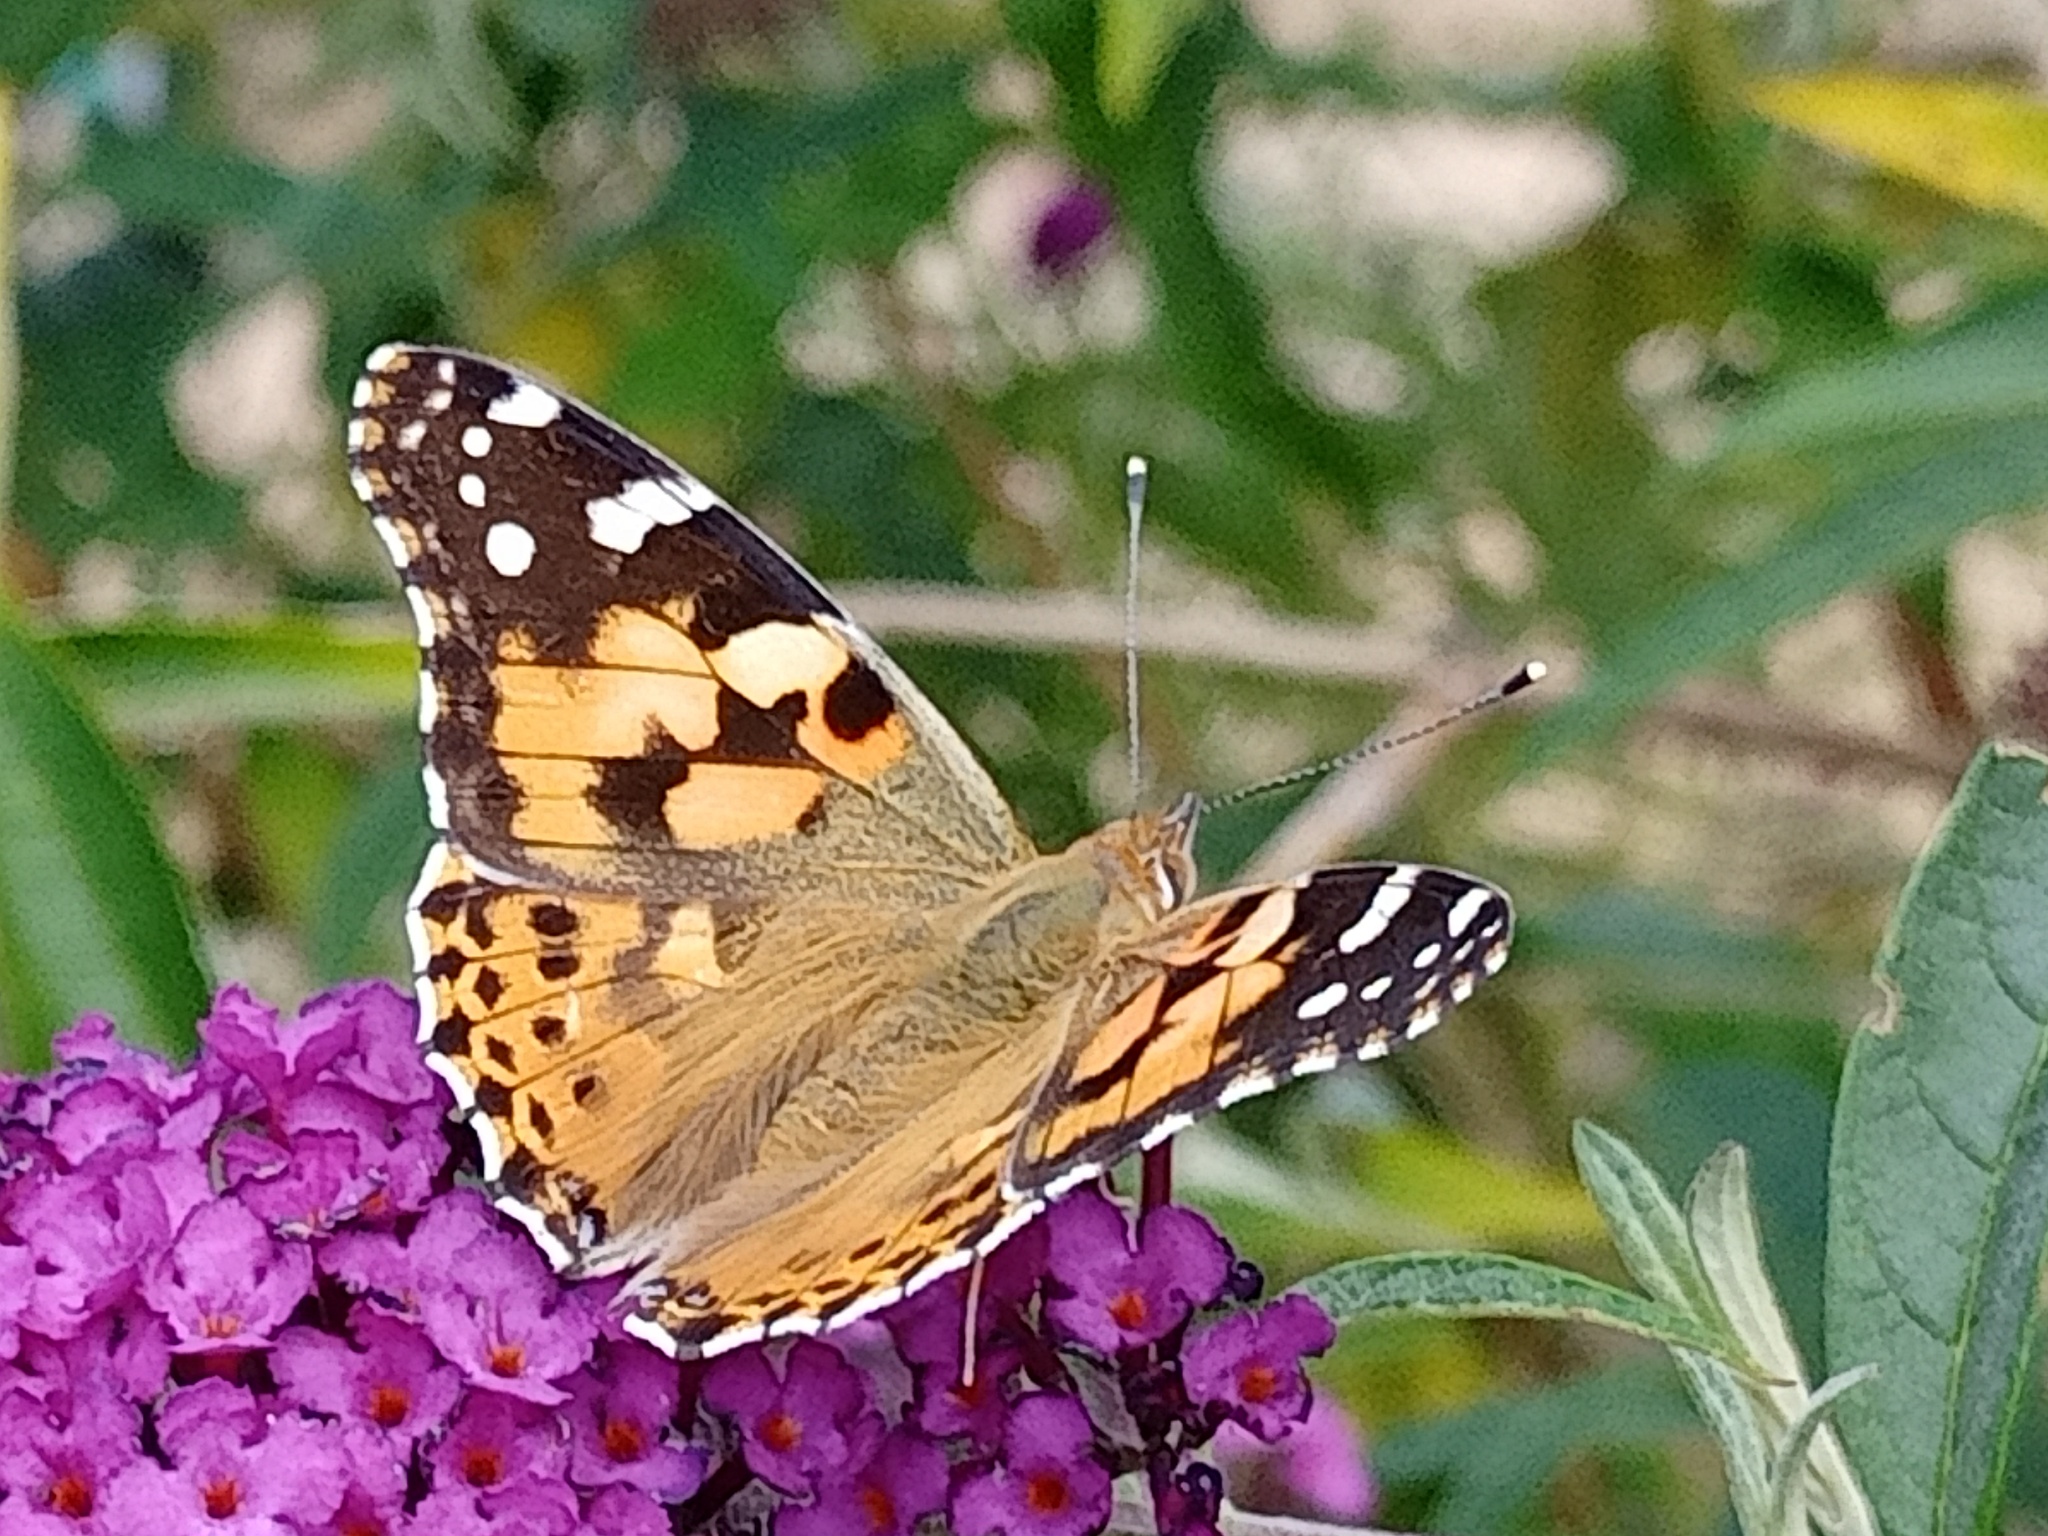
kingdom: Animalia
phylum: Arthropoda
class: Insecta
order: Lepidoptera
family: Nymphalidae
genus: Vanessa
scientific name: Vanessa cardui
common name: Painted lady
